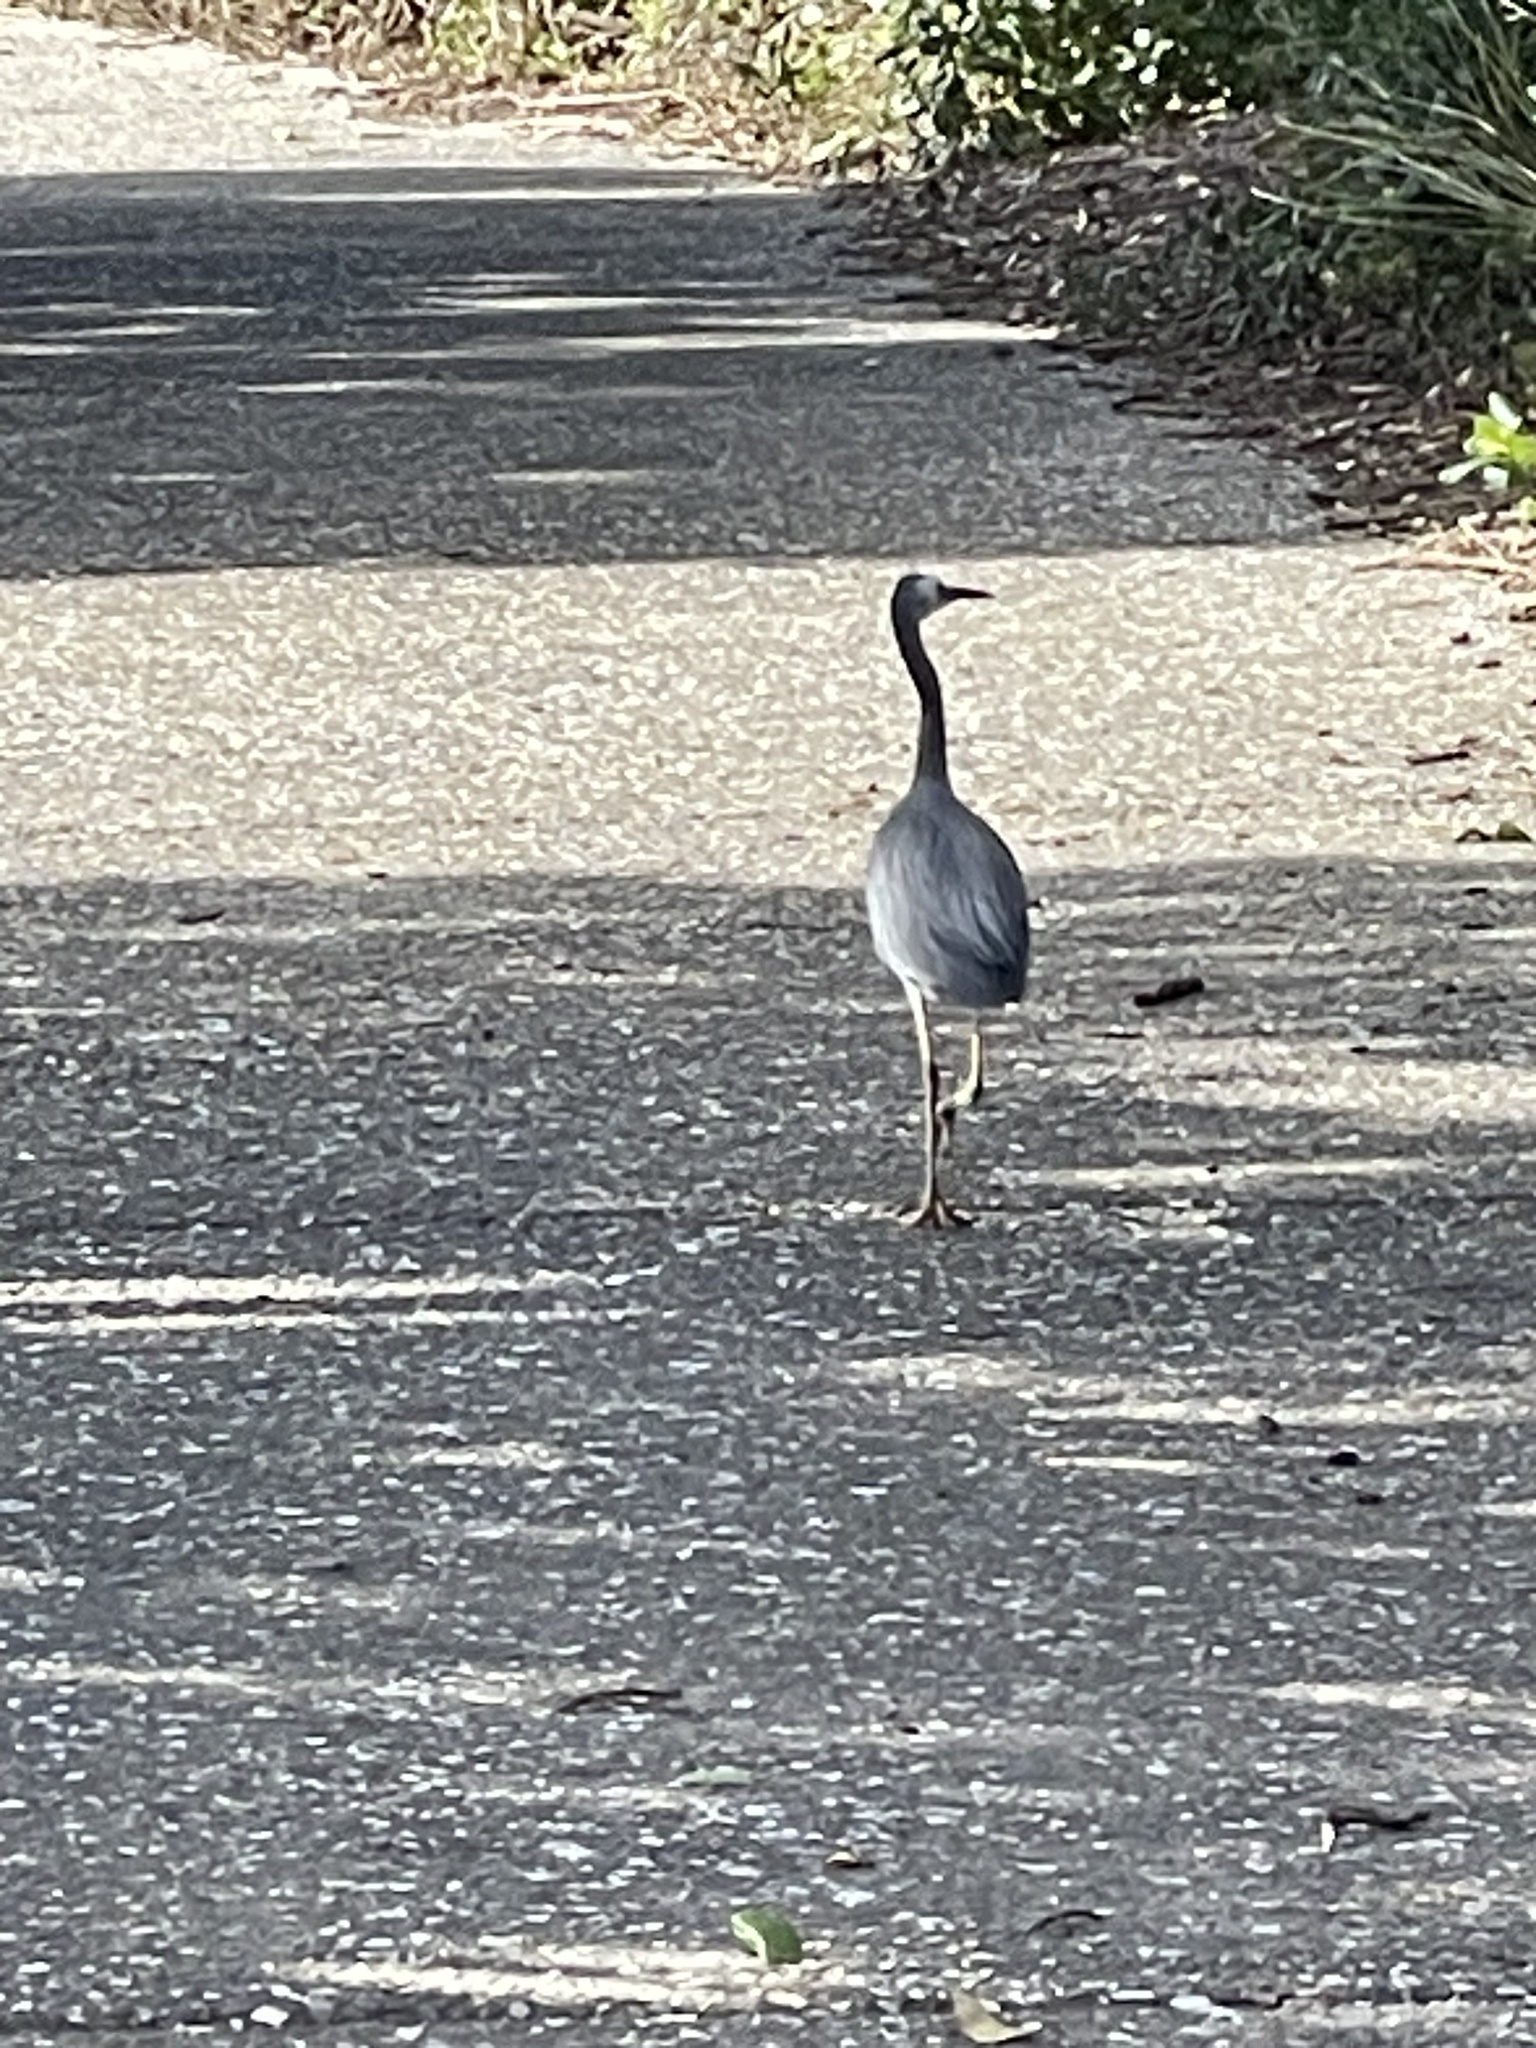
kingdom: Animalia
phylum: Chordata
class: Aves
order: Pelecaniformes
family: Ardeidae
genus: Egretta
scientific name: Egretta novaehollandiae
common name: White-faced heron
